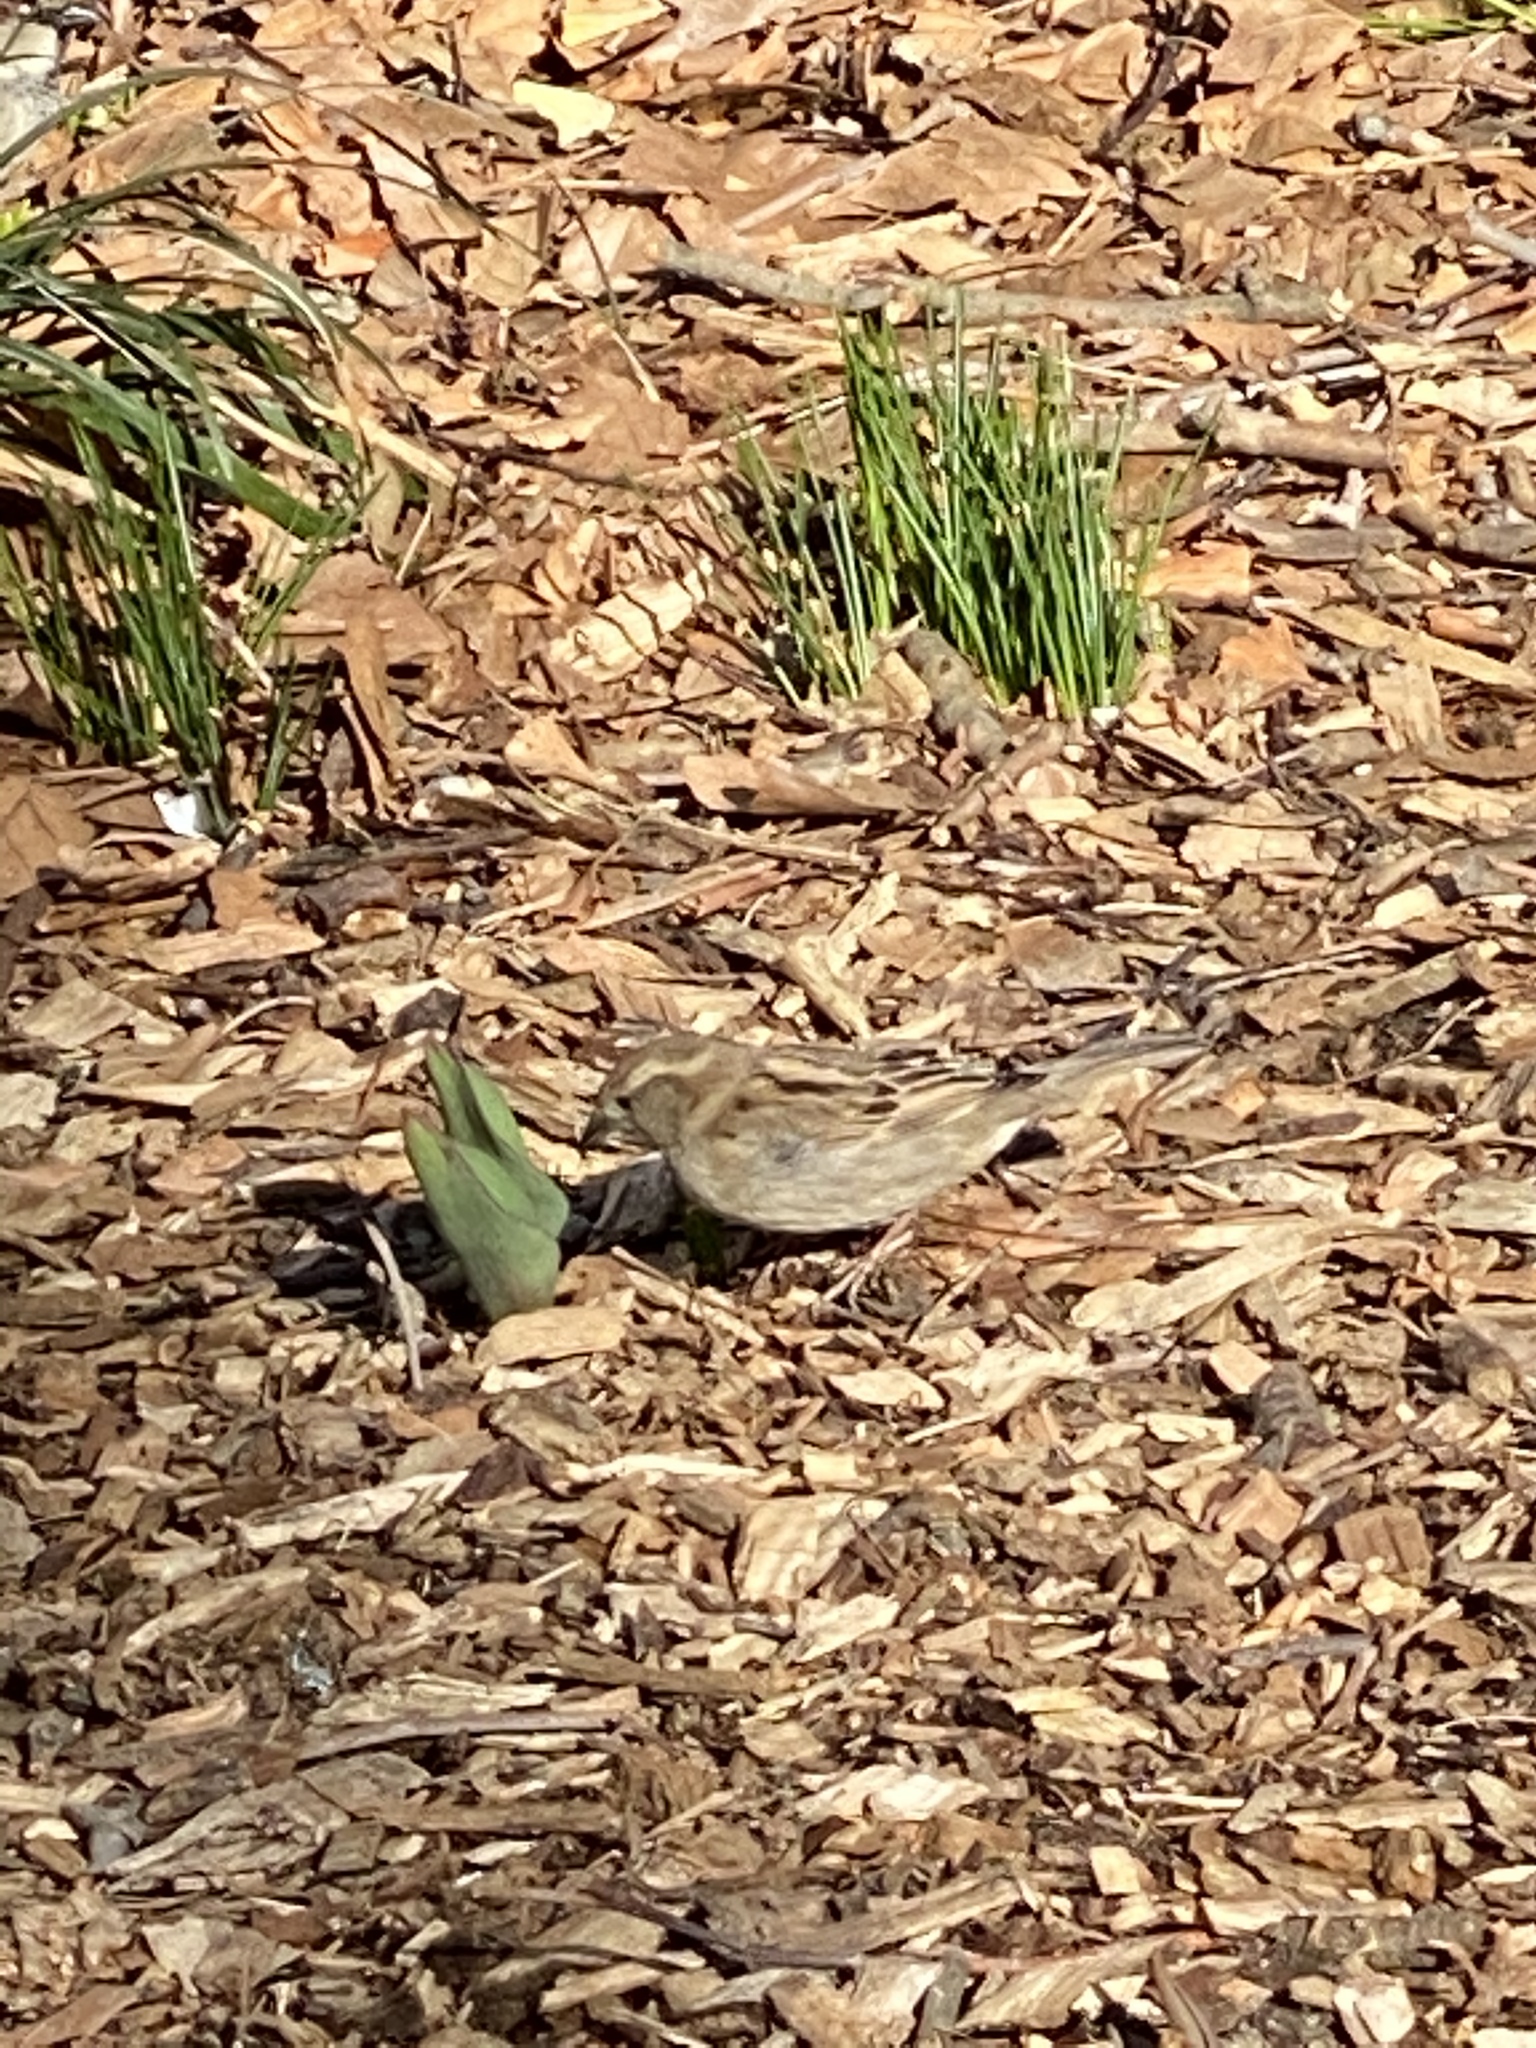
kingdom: Animalia
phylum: Chordata
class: Aves
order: Passeriformes
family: Passeridae
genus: Passer
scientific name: Passer domesticus
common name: House sparrow
